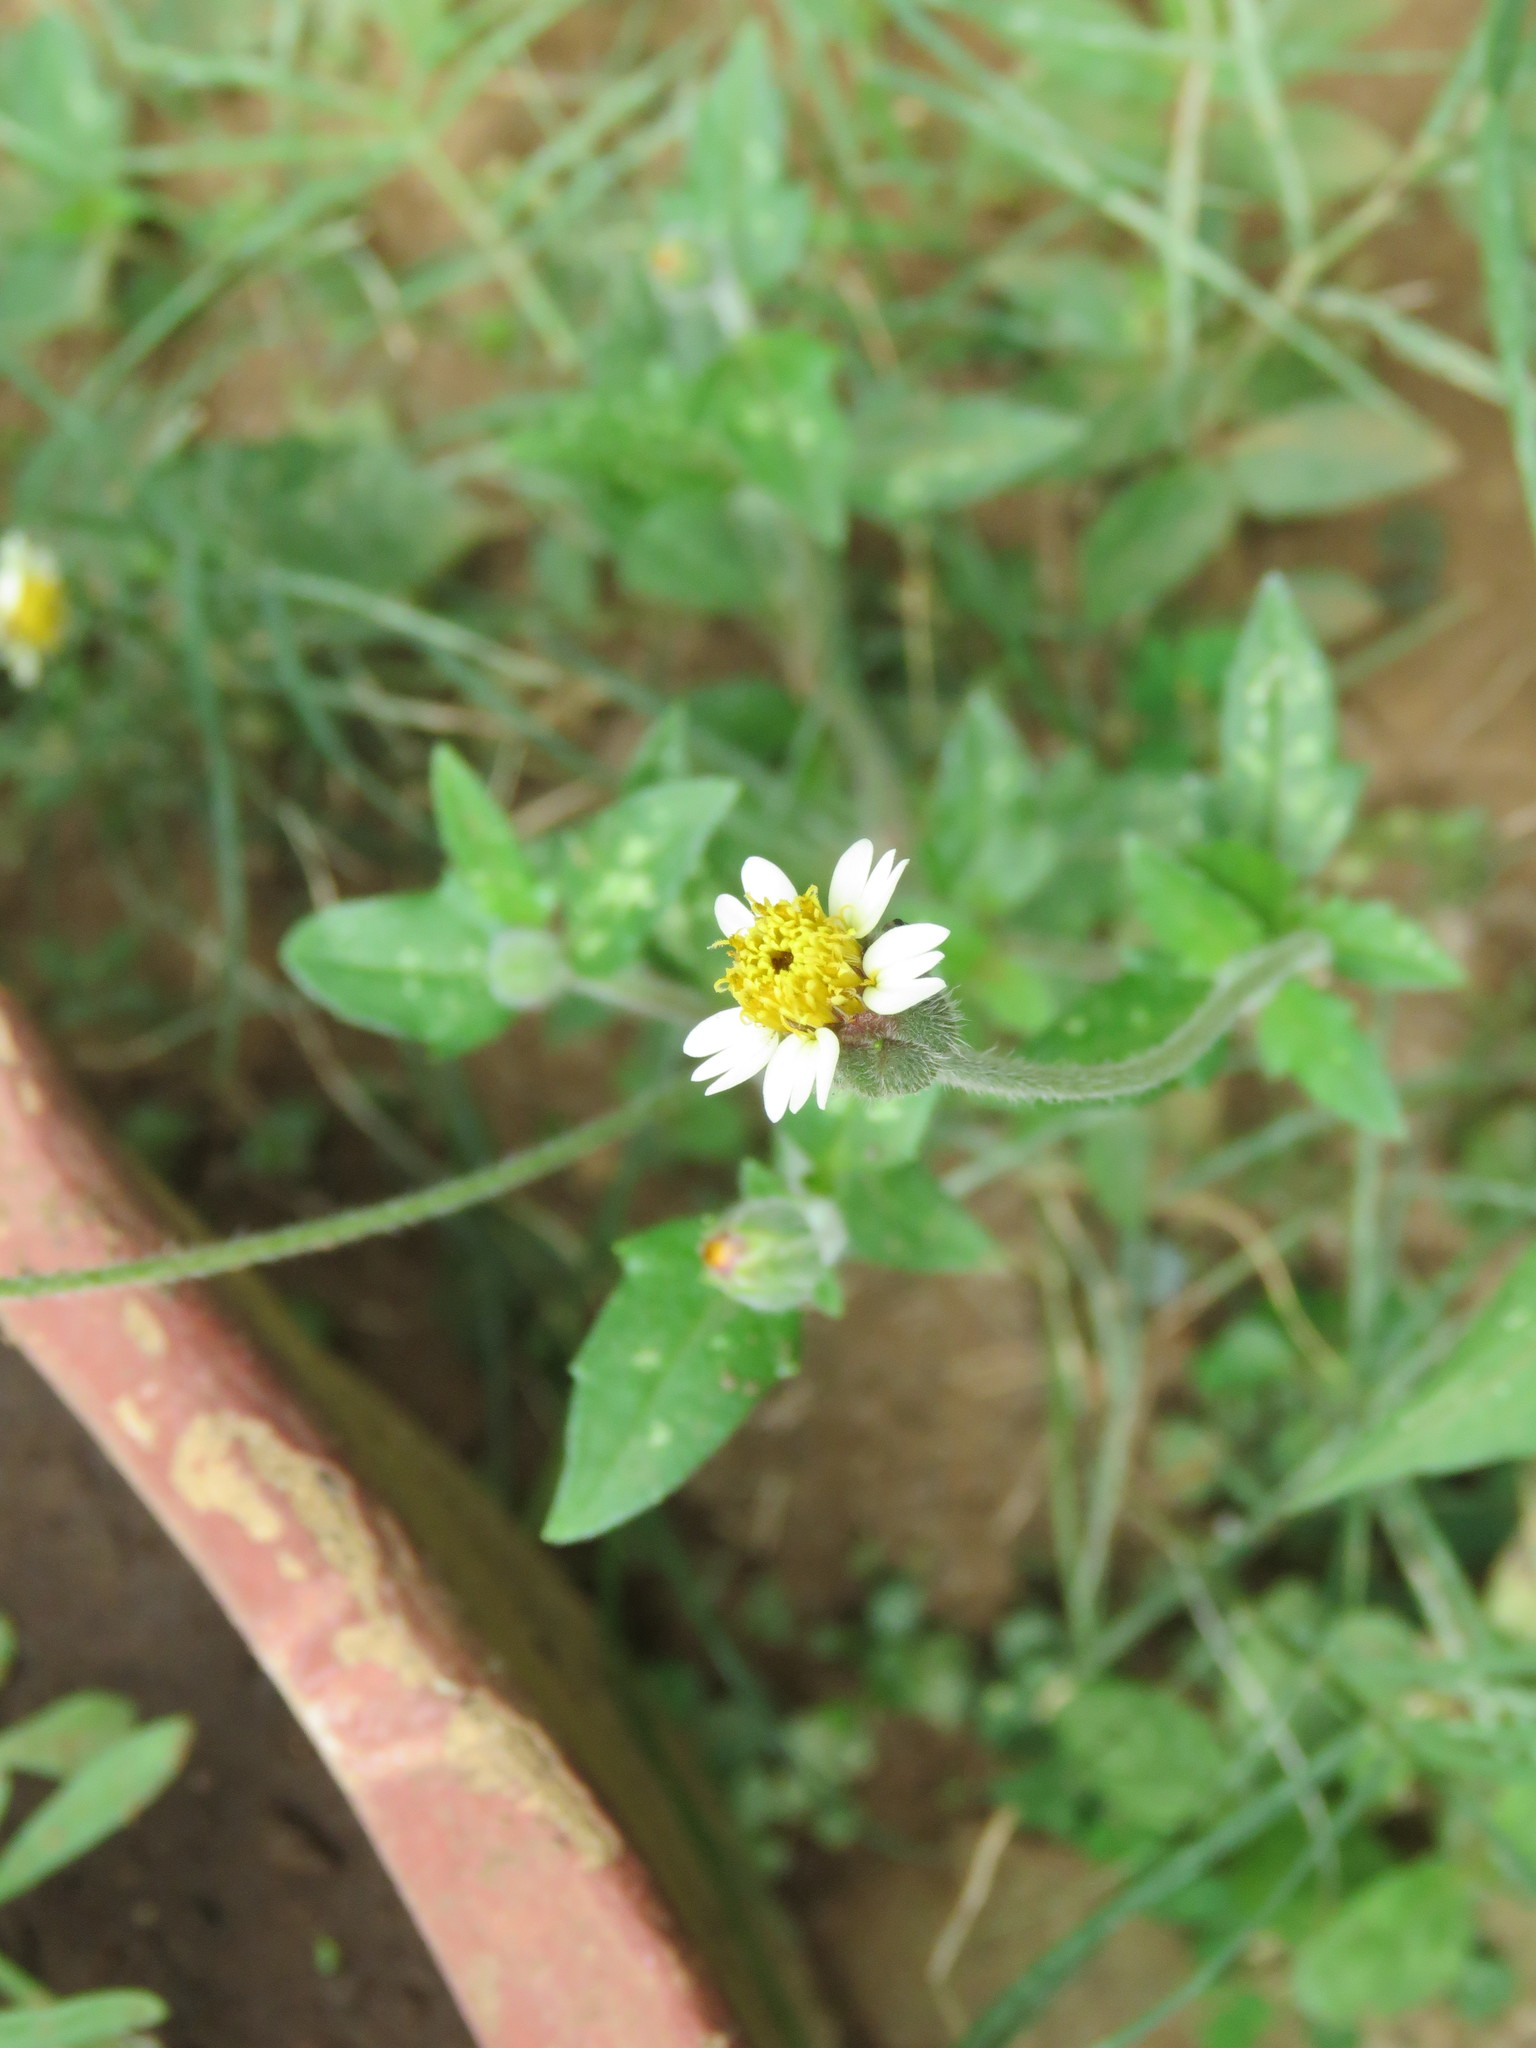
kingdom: Plantae
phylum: Tracheophyta
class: Magnoliopsida
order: Asterales
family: Asteraceae
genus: Tridax
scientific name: Tridax procumbens
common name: Coatbuttons
